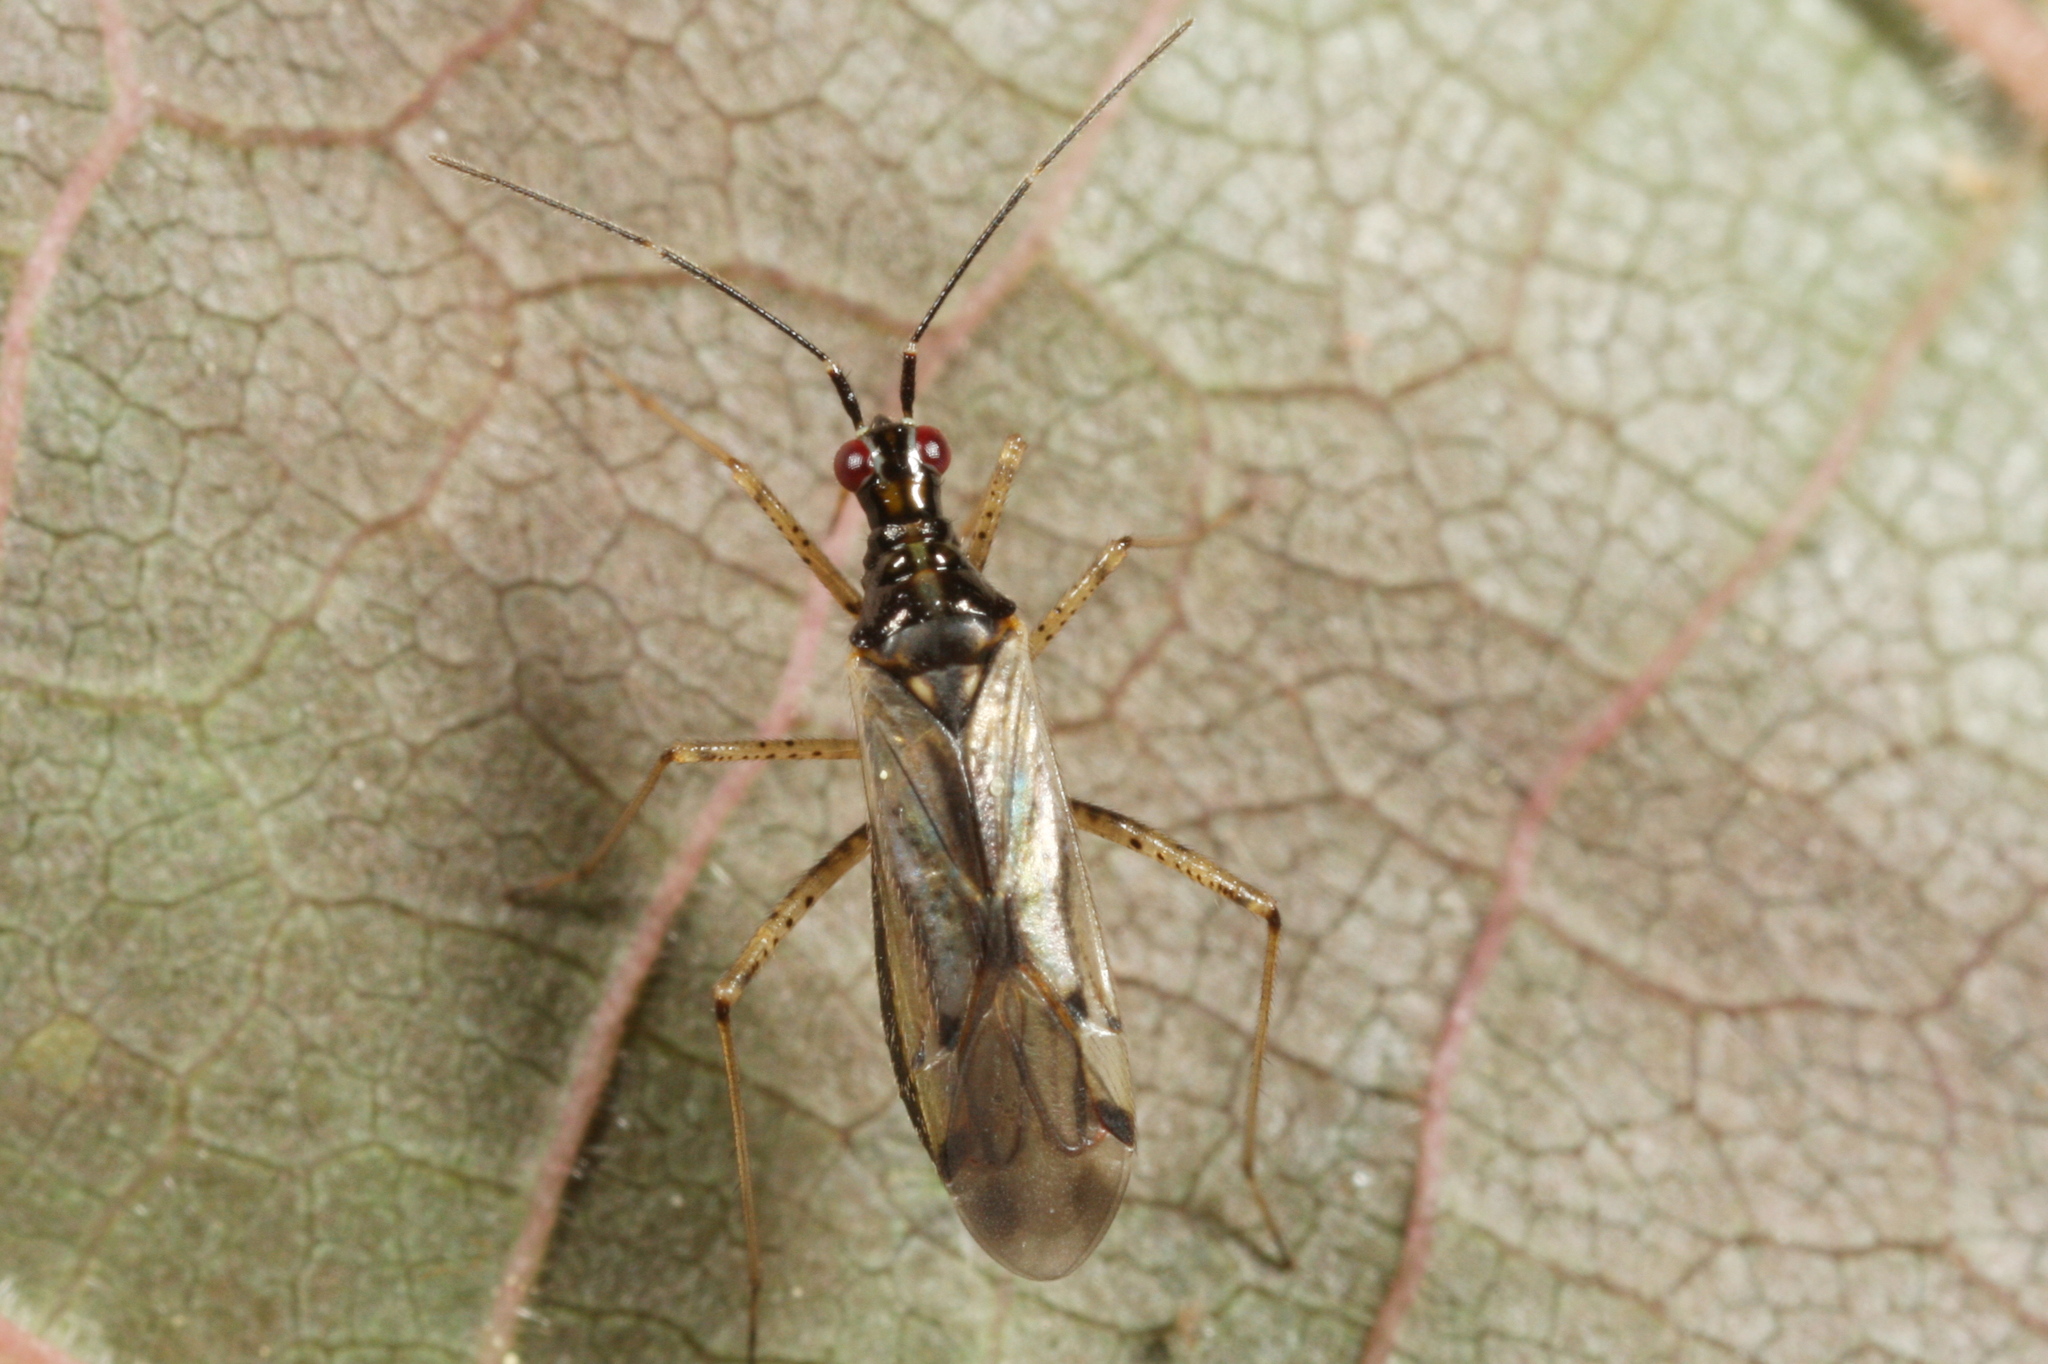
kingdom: Animalia
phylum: Arthropoda
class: Insecta
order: Hemiptera
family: Miridae
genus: Dicyphus
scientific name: Dicyphus errans
